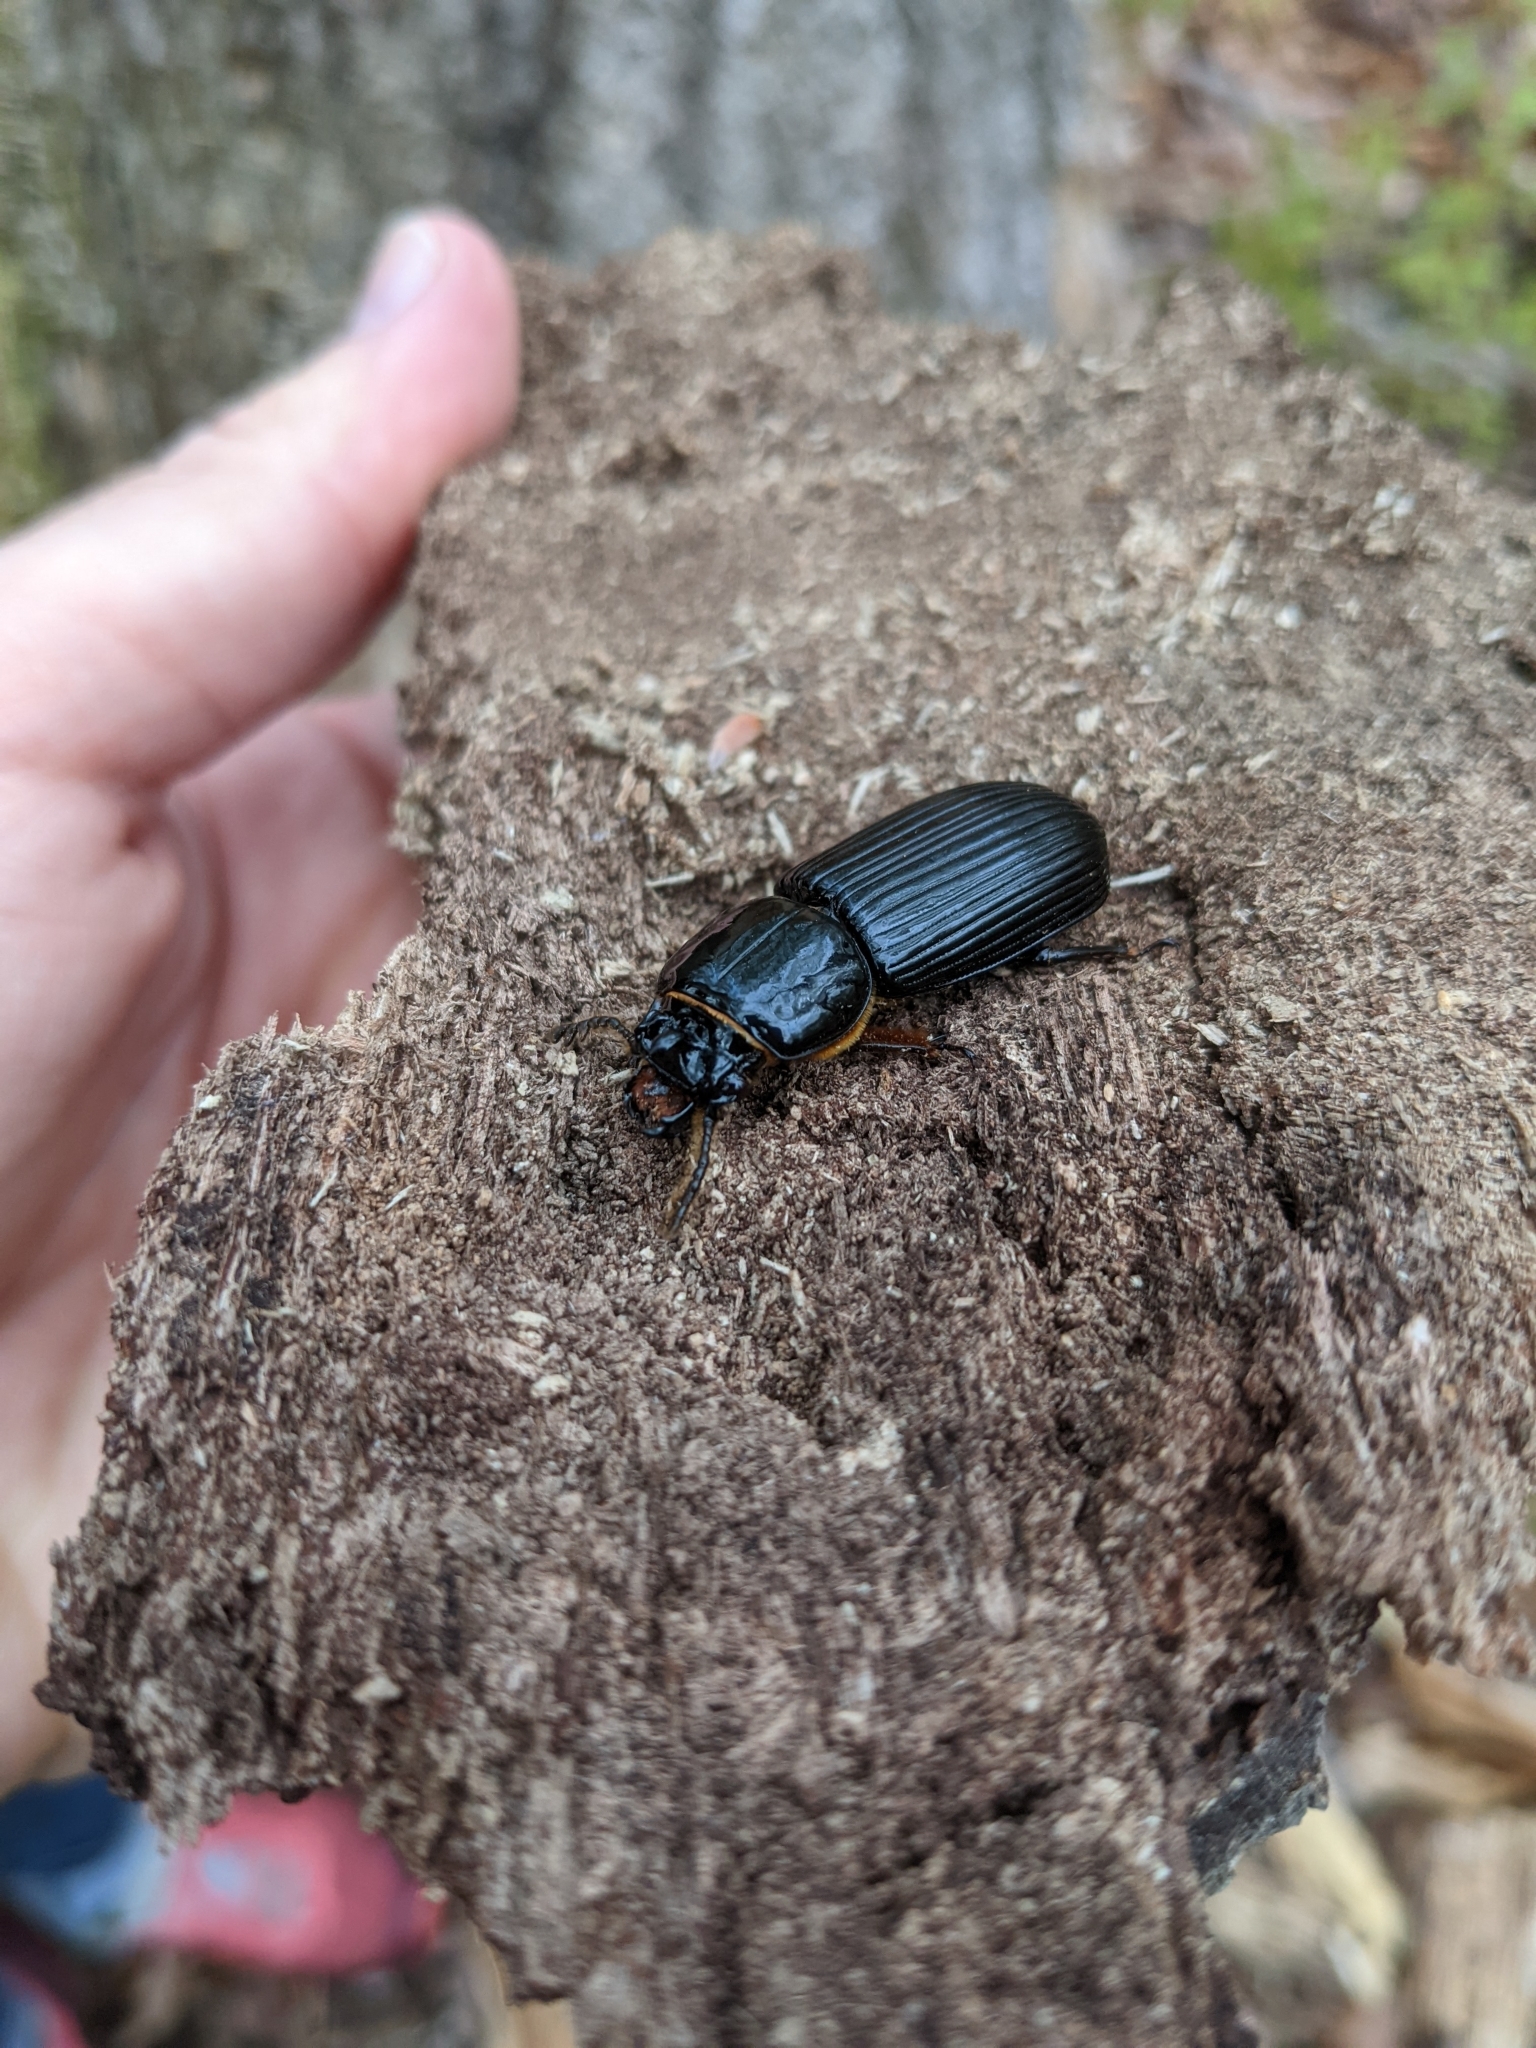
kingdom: Animalia
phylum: Arthropoda
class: Insecta
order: Coleoptera
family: Passalidae
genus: Odontotaenius
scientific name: Odontotaenius disjunctus
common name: Patent leather beetle
